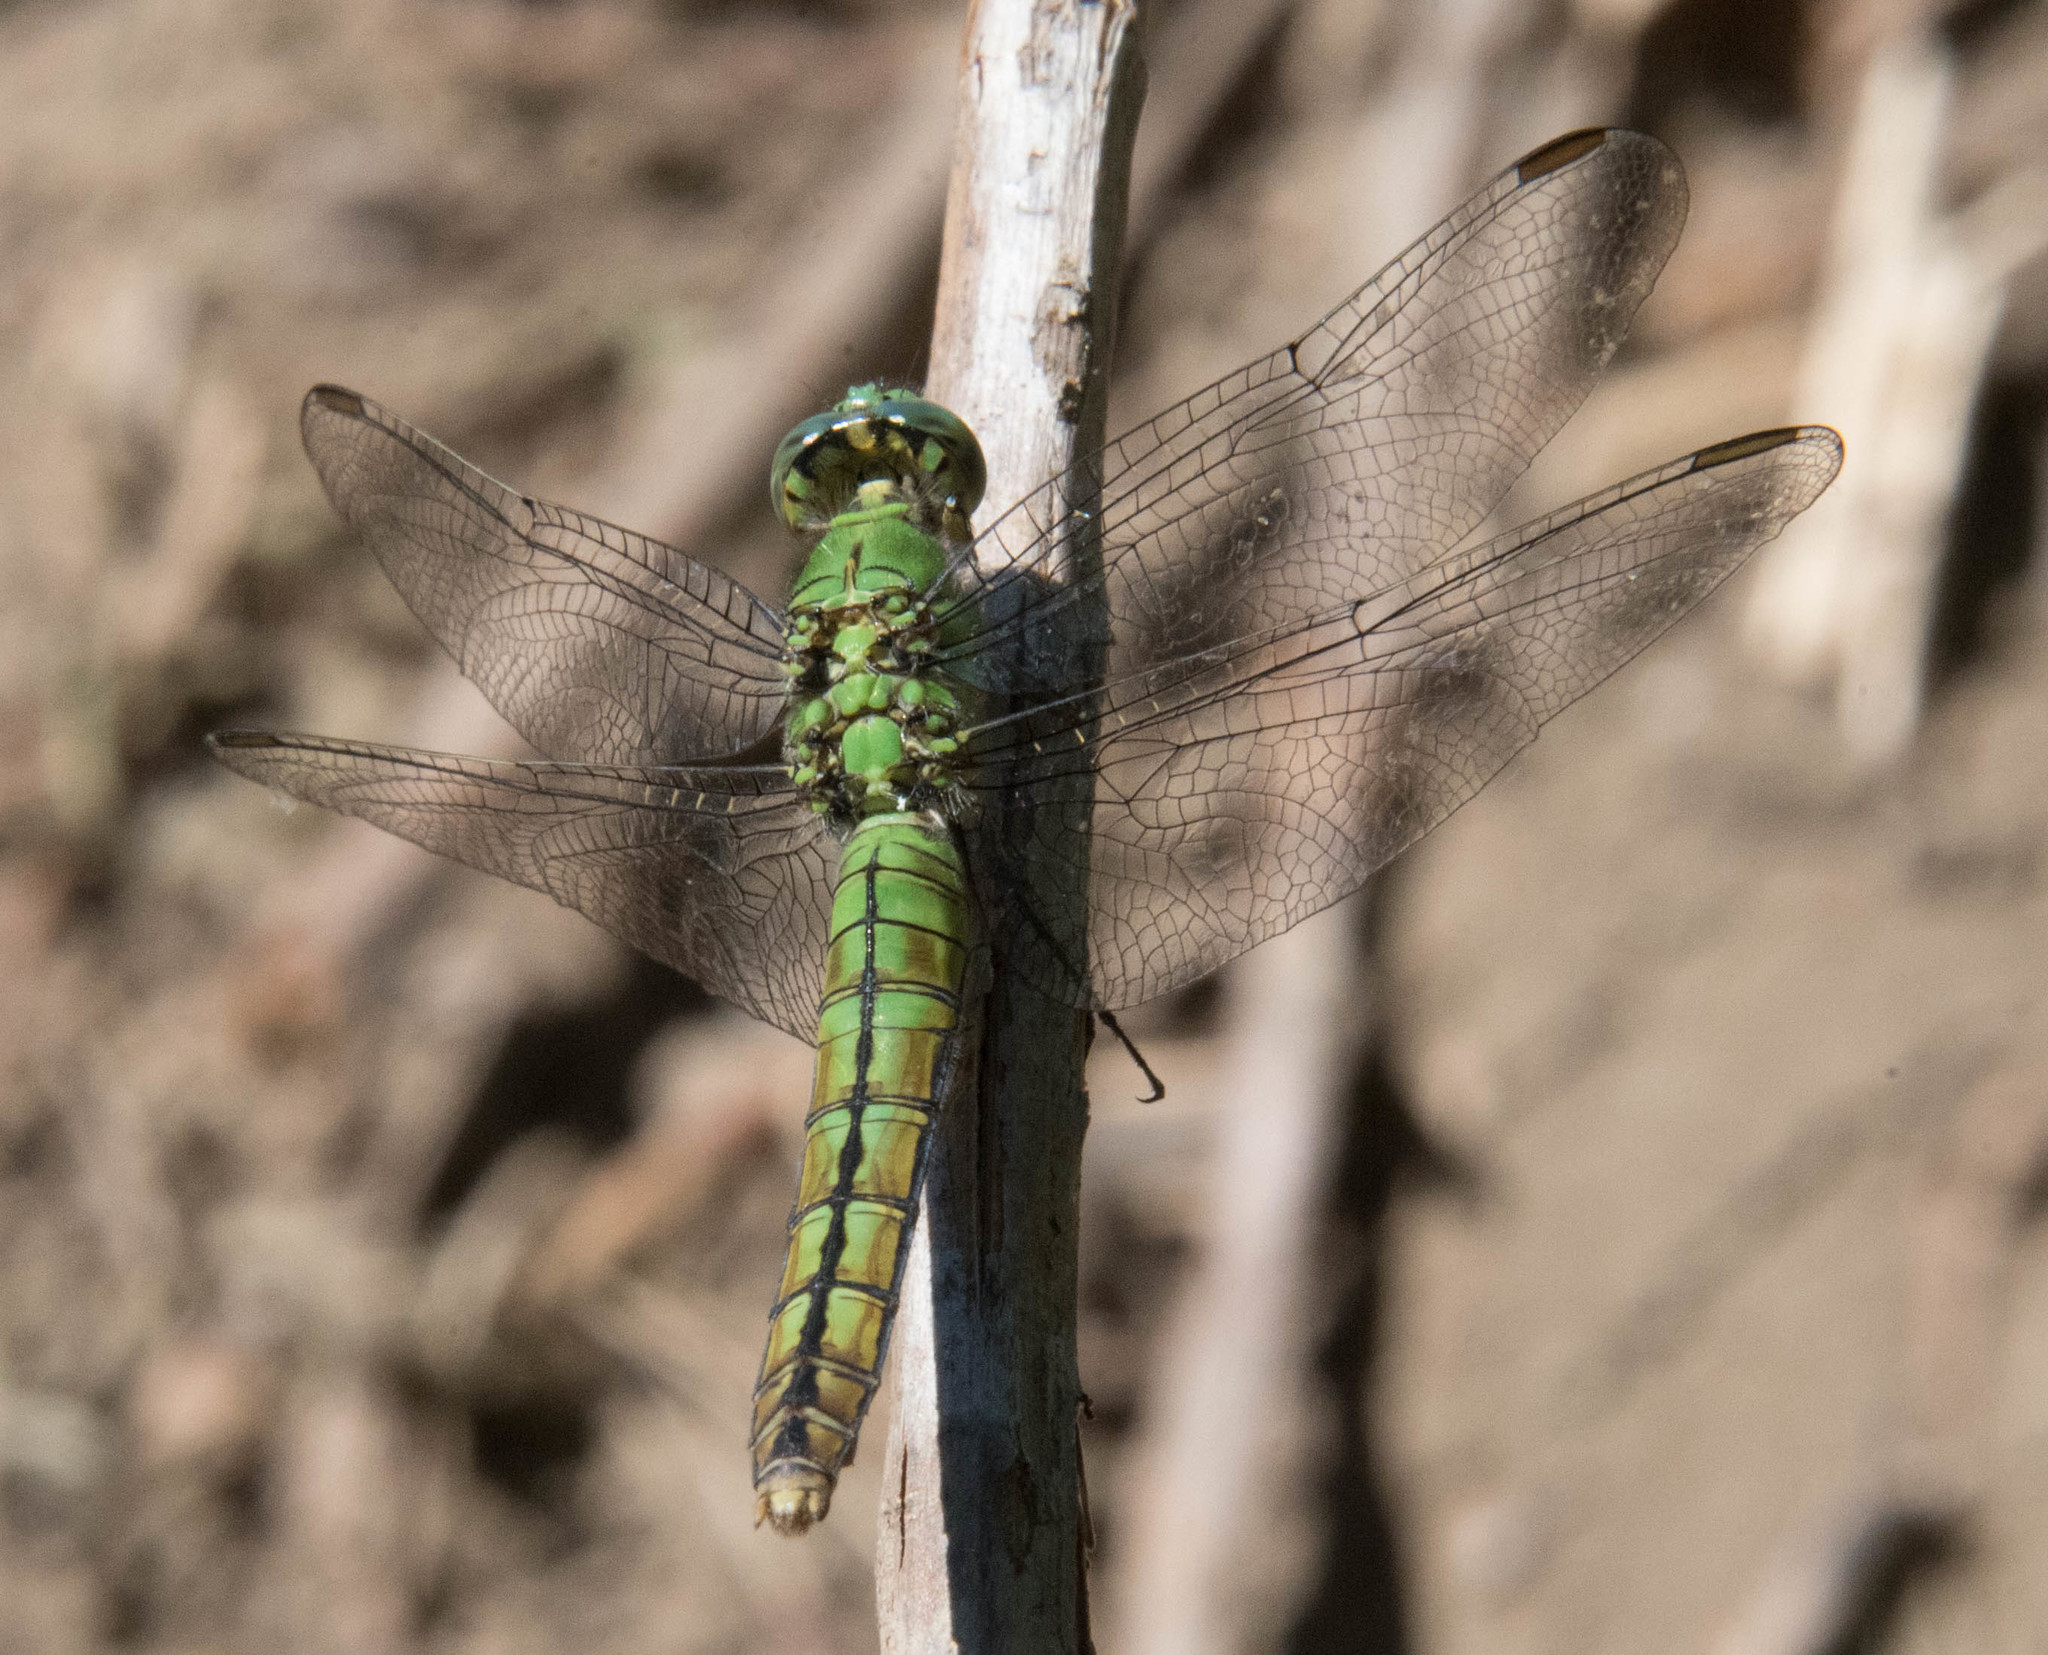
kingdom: Animalia
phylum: Arthropoda
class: Insecta
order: Odonata
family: Libellulidae
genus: Erythemis
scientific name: Erythemis collocata
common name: Western pondhawk
